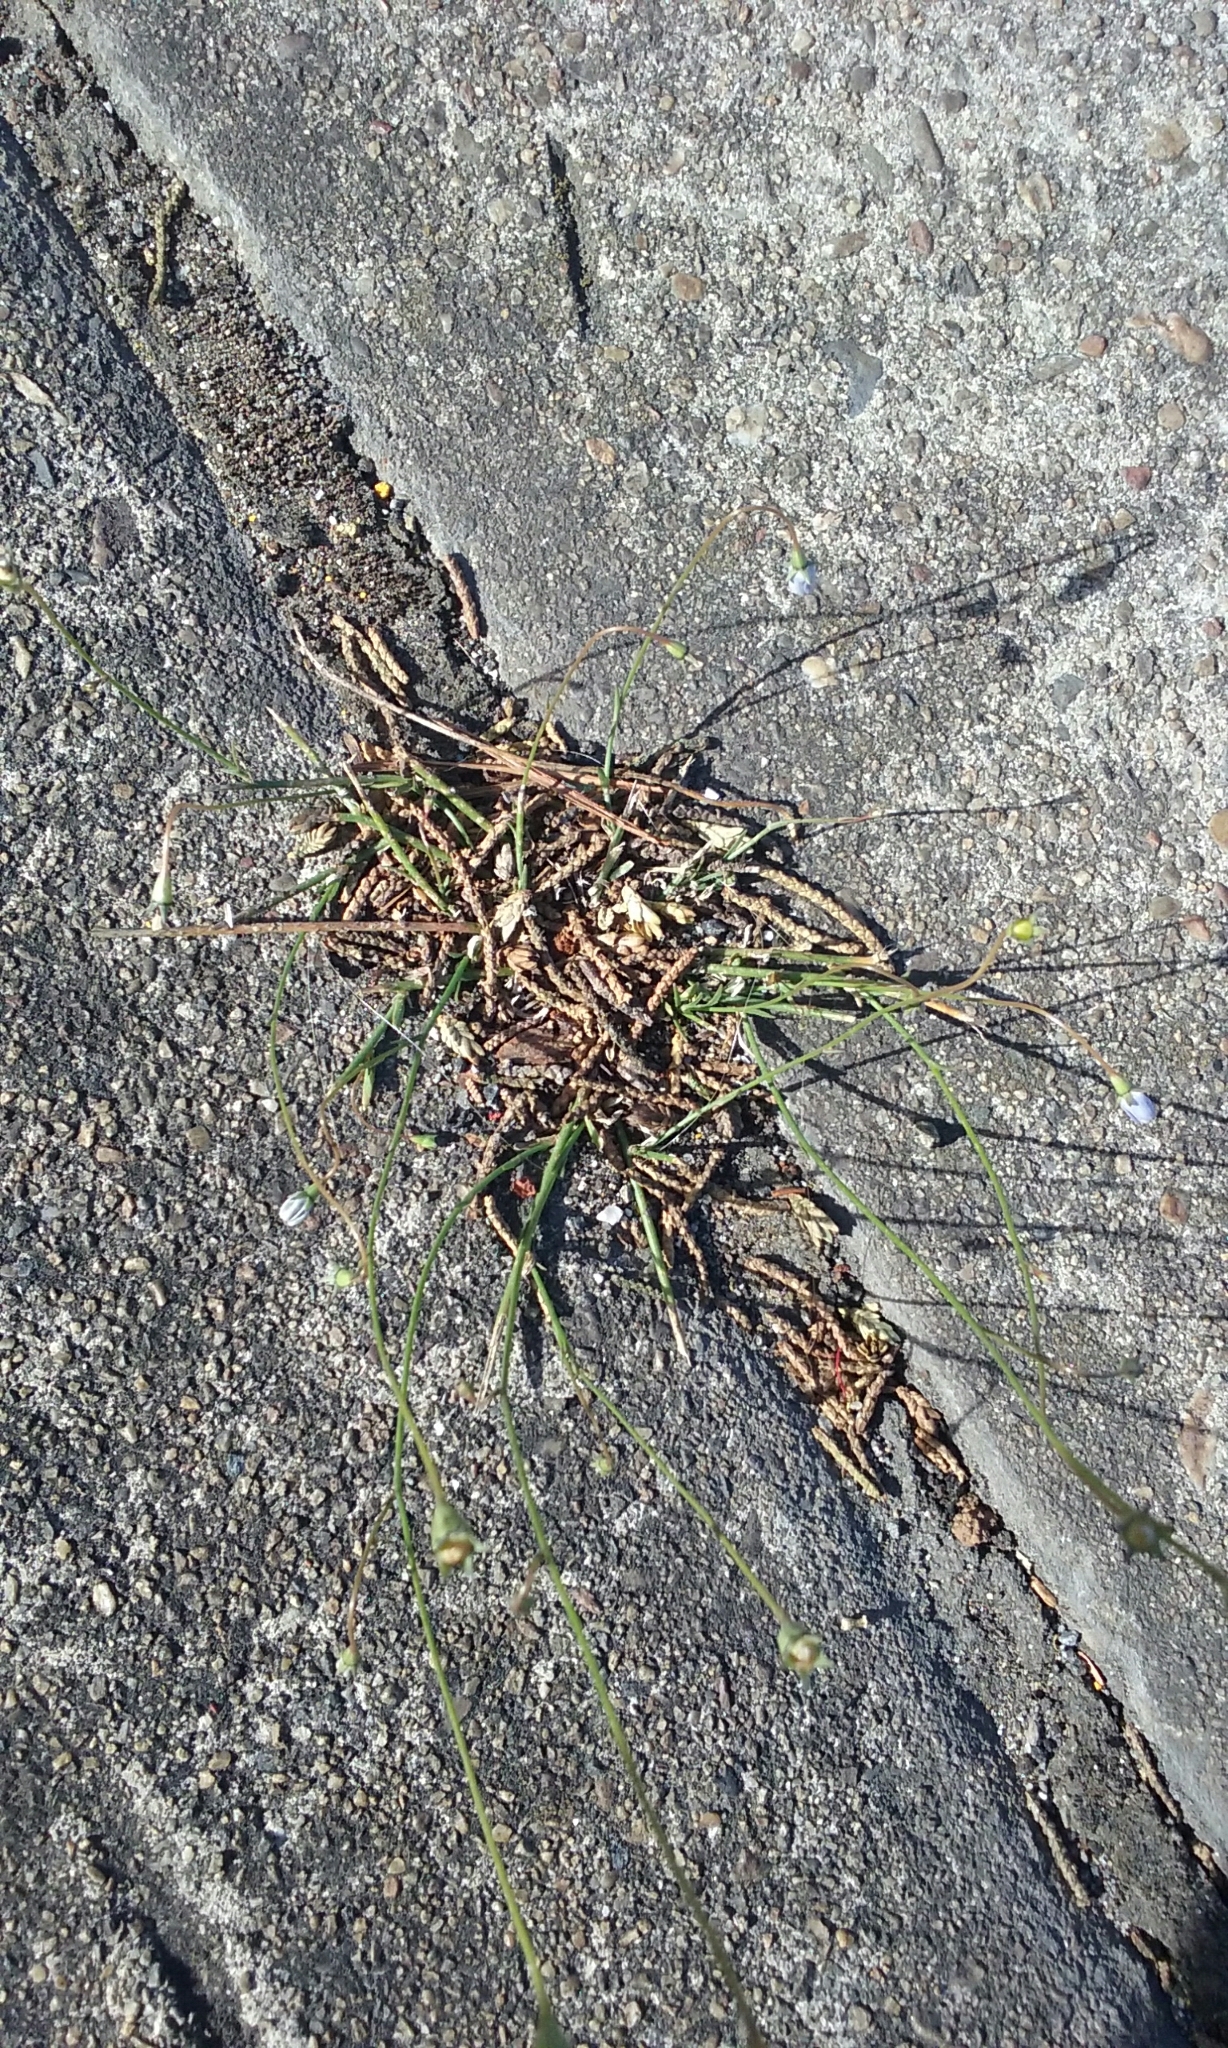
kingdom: Plantae
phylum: Tracheophyta
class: Magnoliopsida
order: Asterales
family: Campanulaceae
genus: Wahlenbergia
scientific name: Wahlenbergia marginata
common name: Southern rockbell
